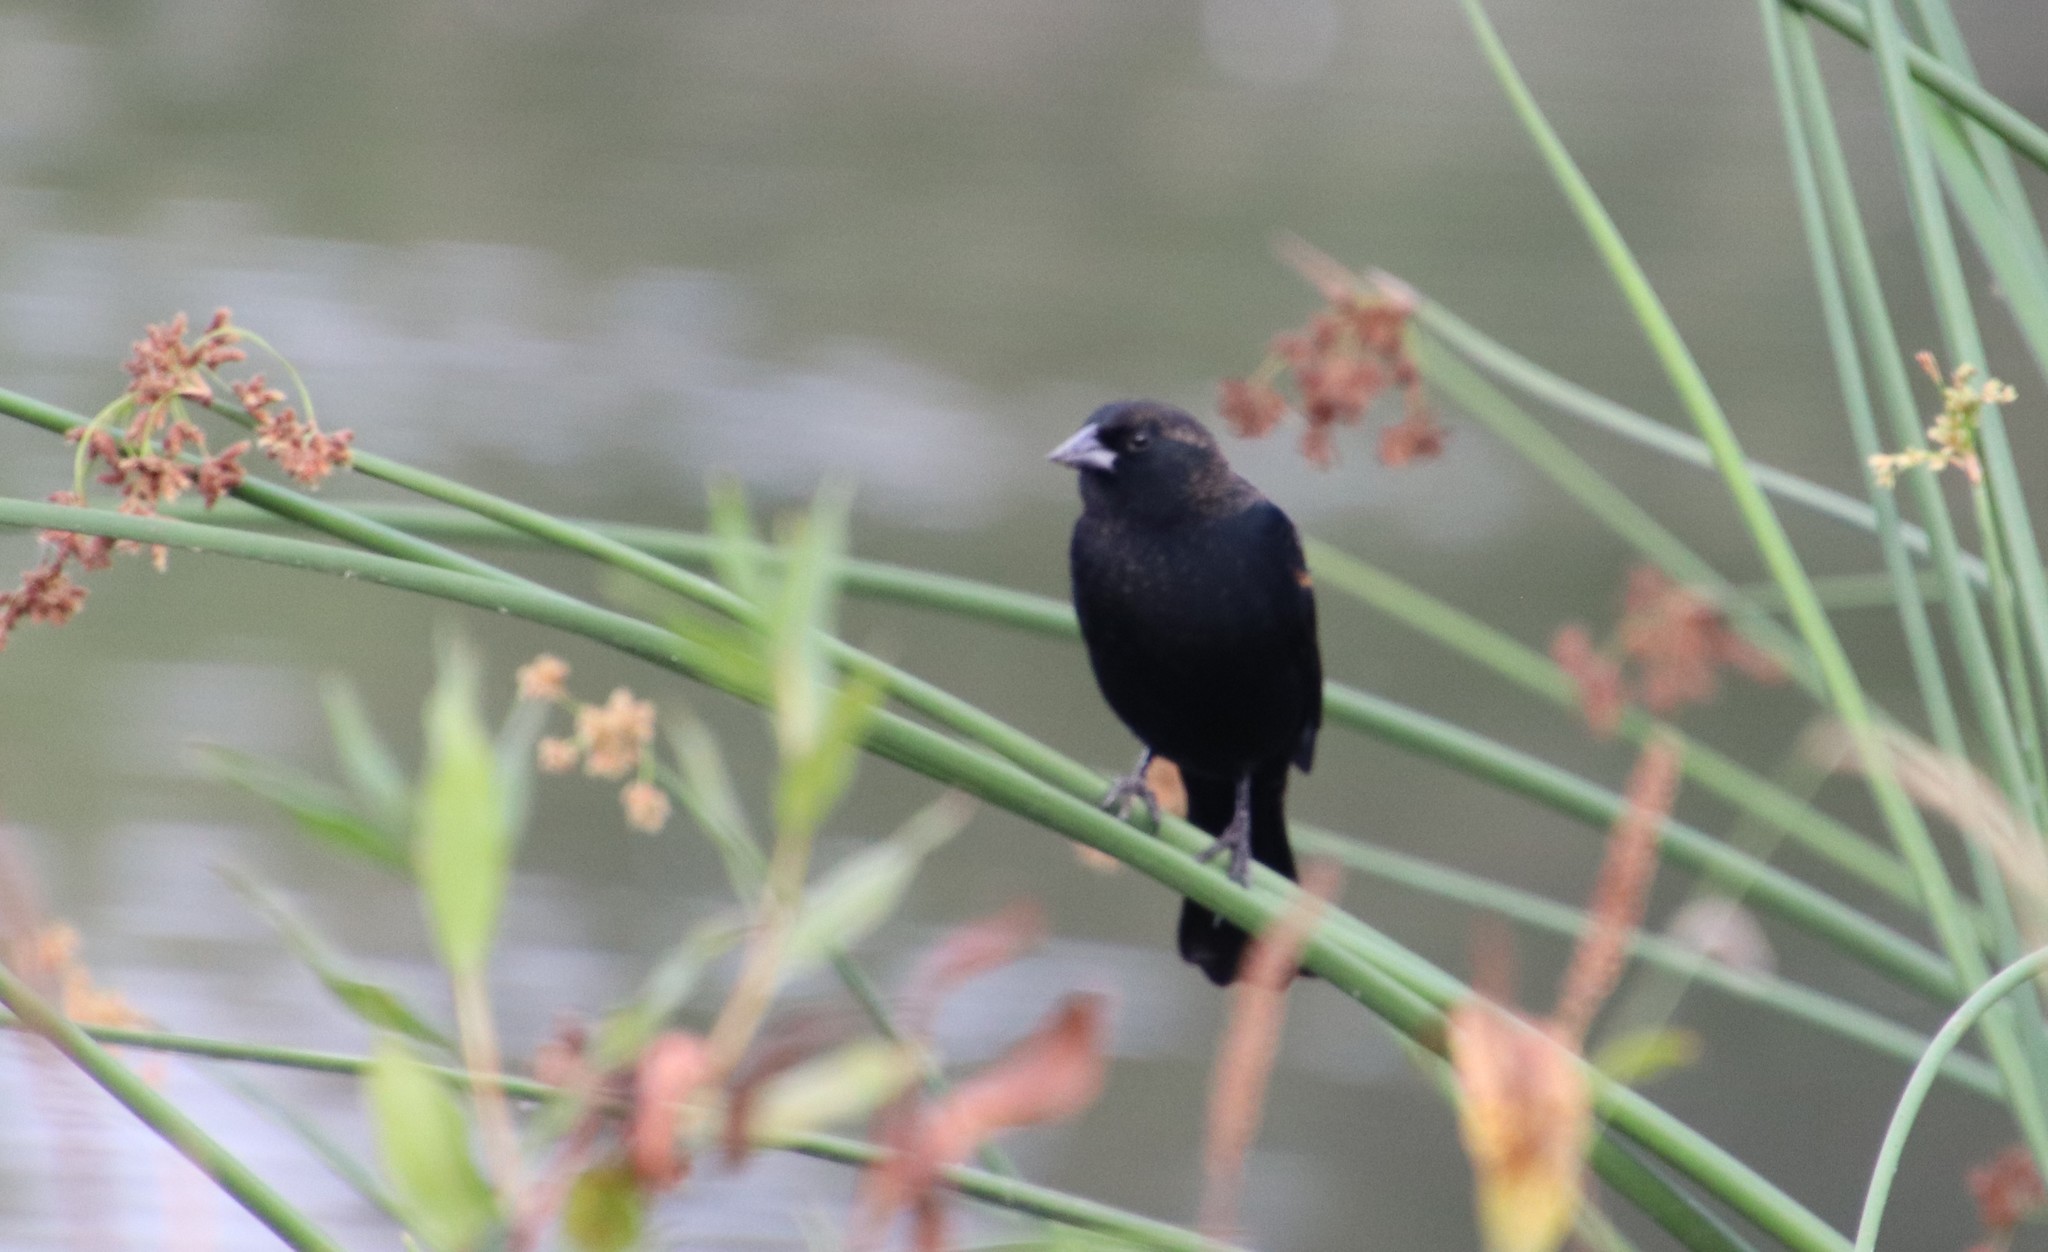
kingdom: Animalia
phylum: Chordata
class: Aves
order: Passeriformes
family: Icteridae
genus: Agelaius
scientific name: Agelaius phoeniceus
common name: Red-winged blackbird
